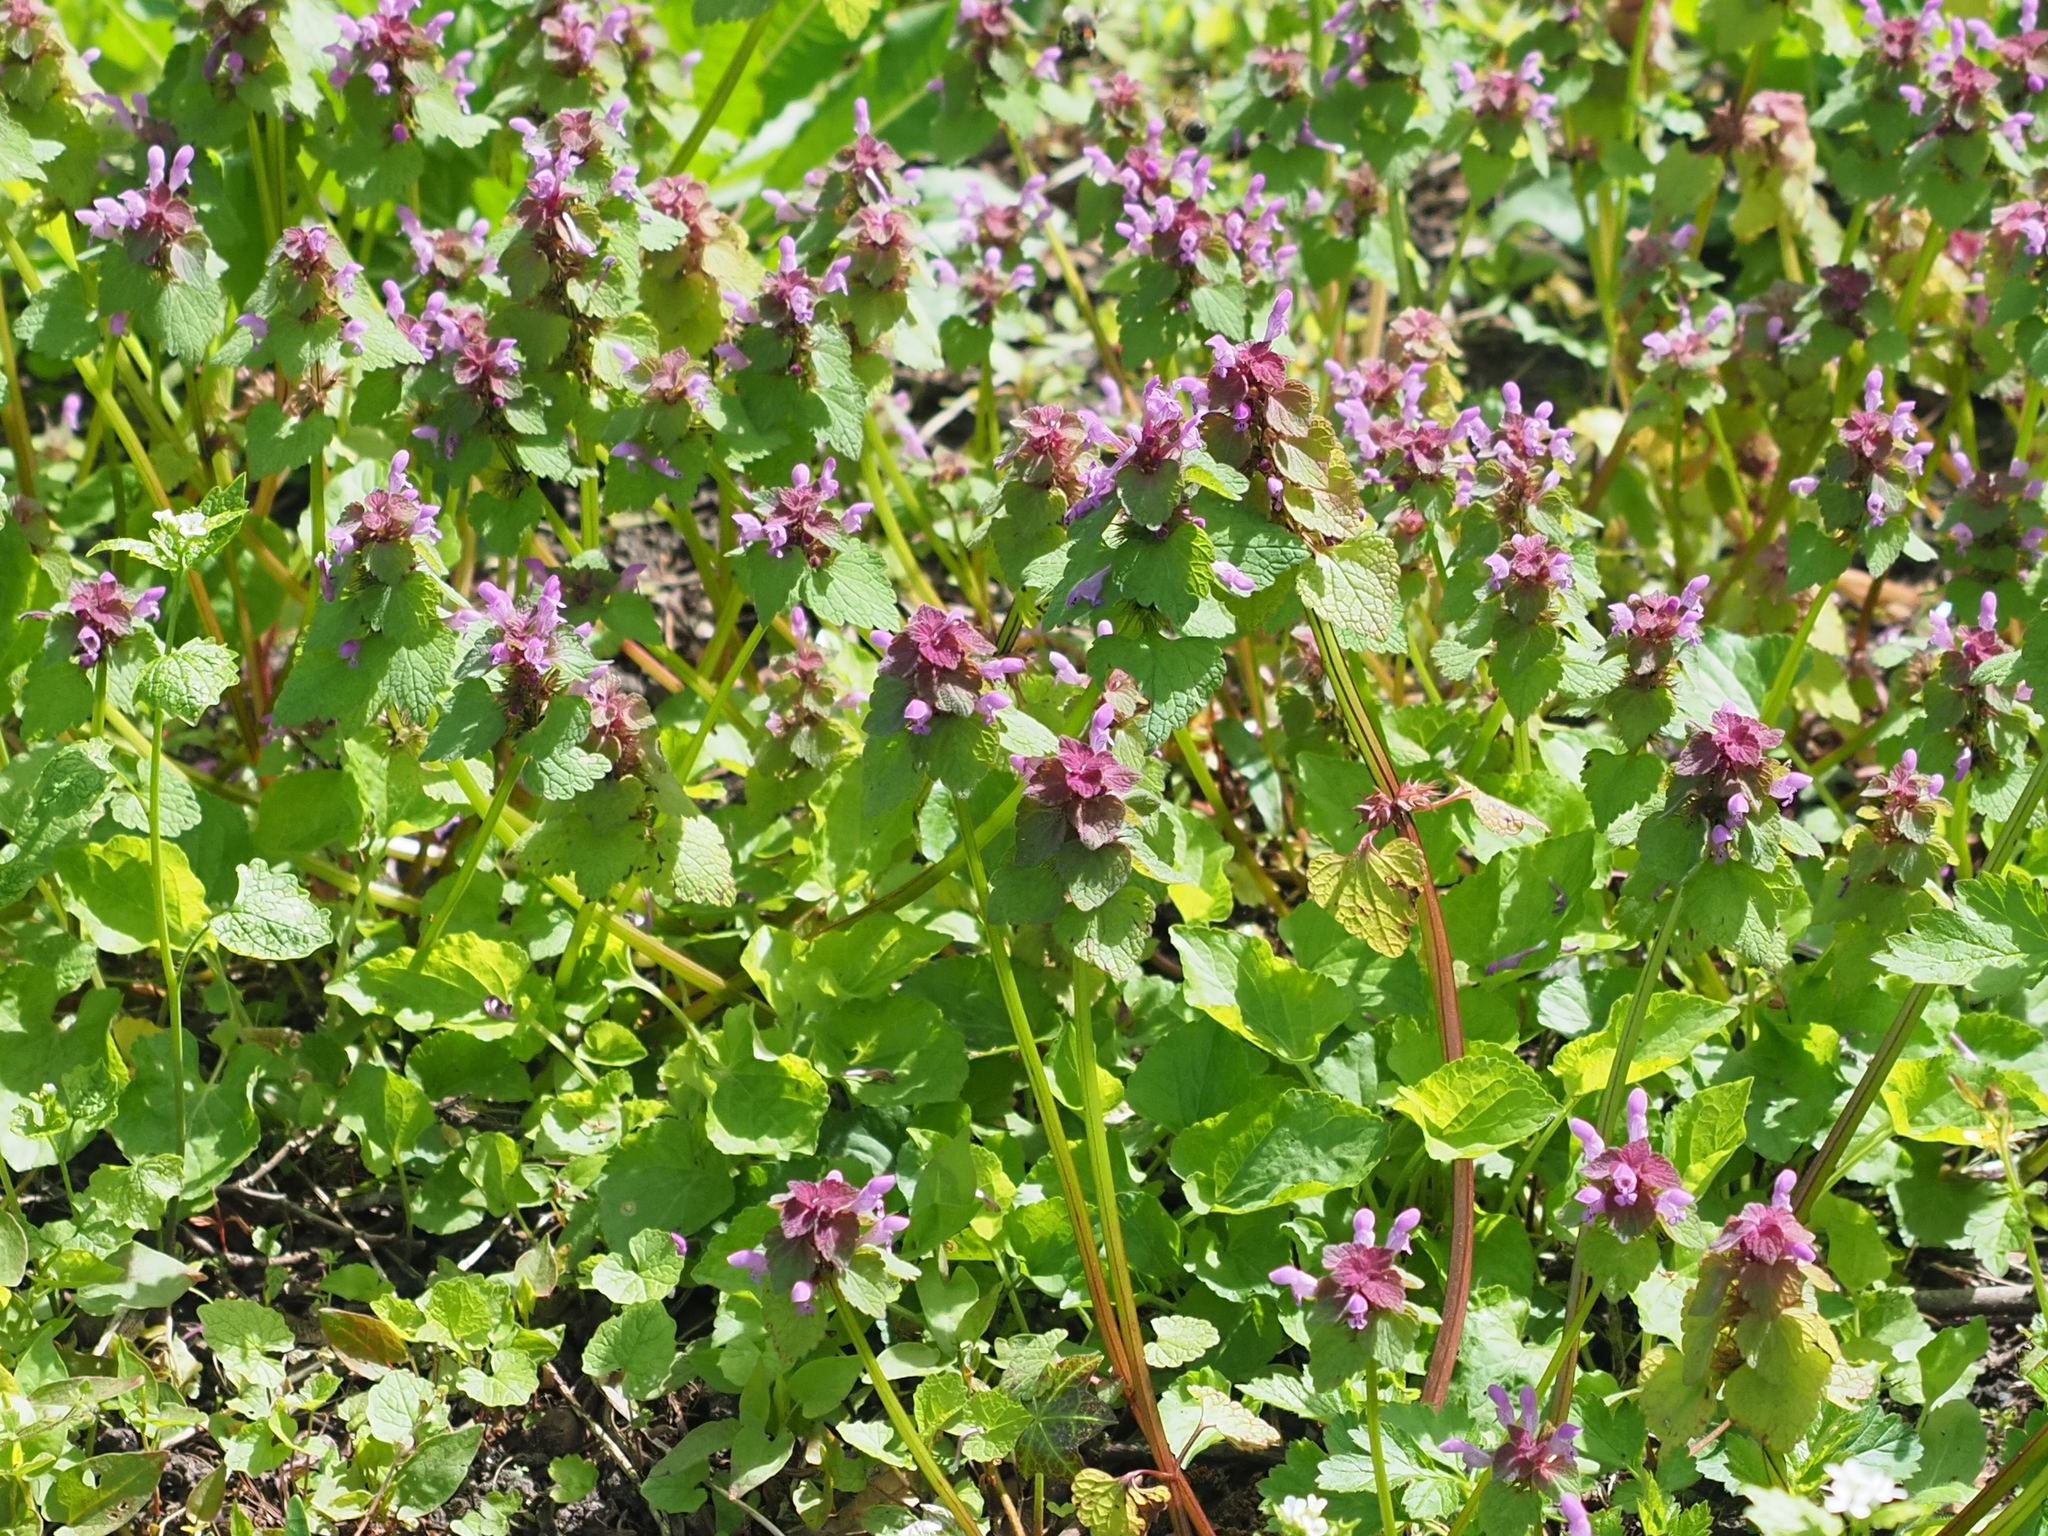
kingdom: Plantae
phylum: Tracheophyta
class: Magnoliopsida
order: Lamiales
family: Lamiaceae
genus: Lamium
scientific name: Lamium purpureum
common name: Red dead-nettle
